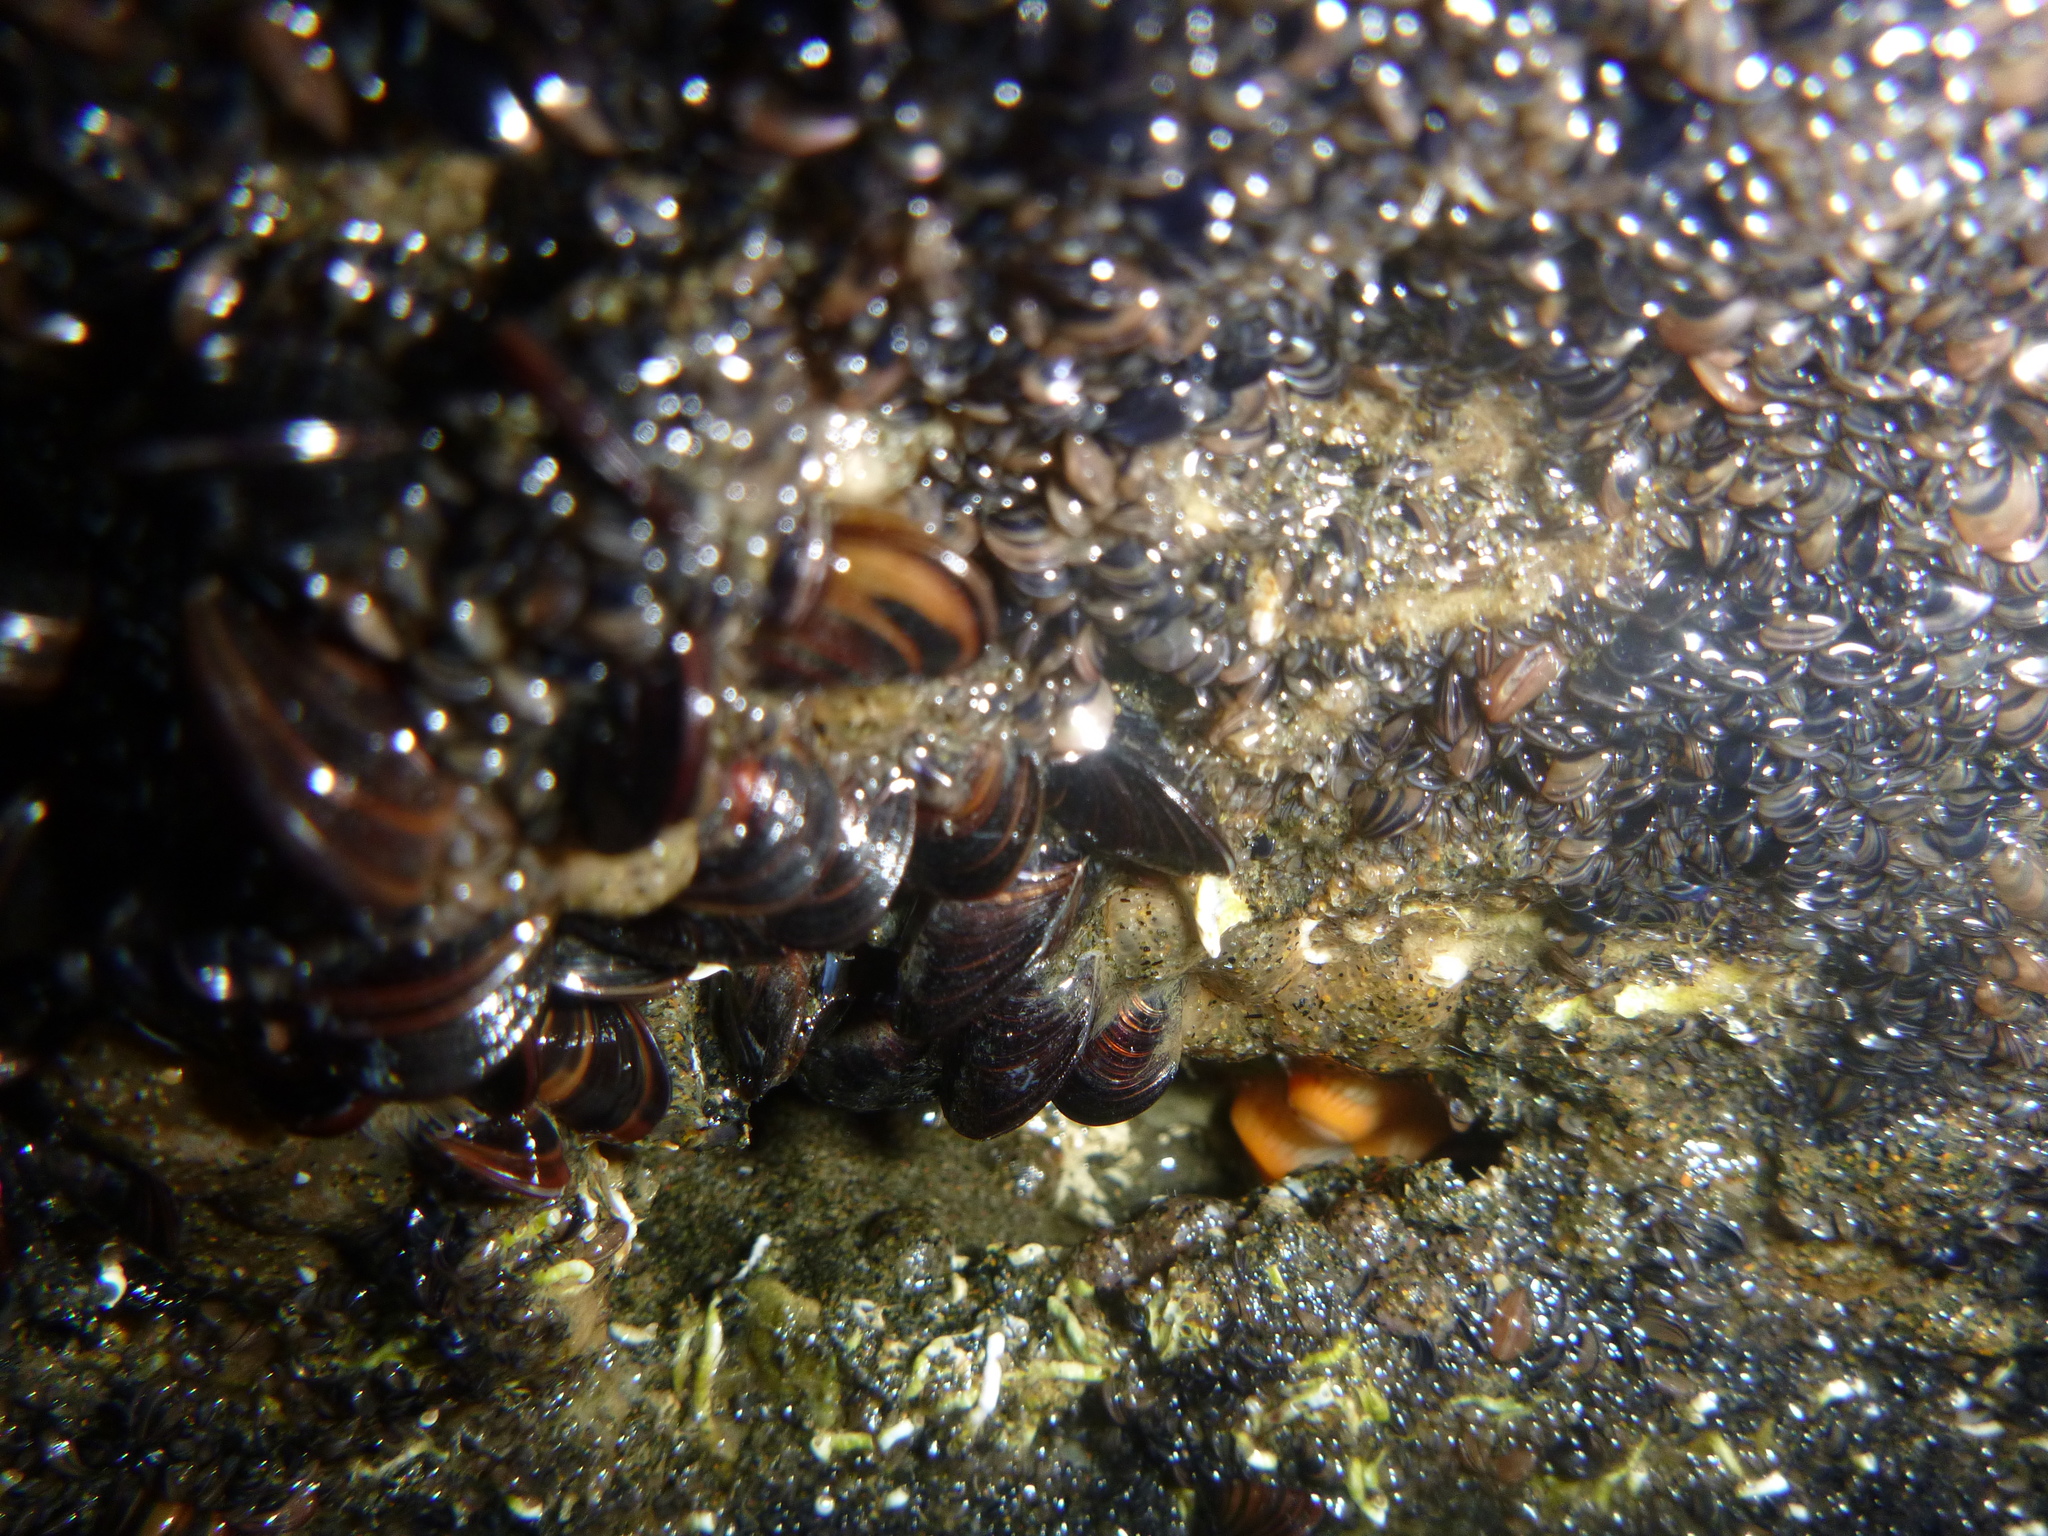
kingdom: Animalia
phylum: Cnidaria
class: Anthozoa
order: Actiniaria
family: Sagartiidae
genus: Anthothoe
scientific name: Anthothoe albocincta
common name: Orange striped anemone
